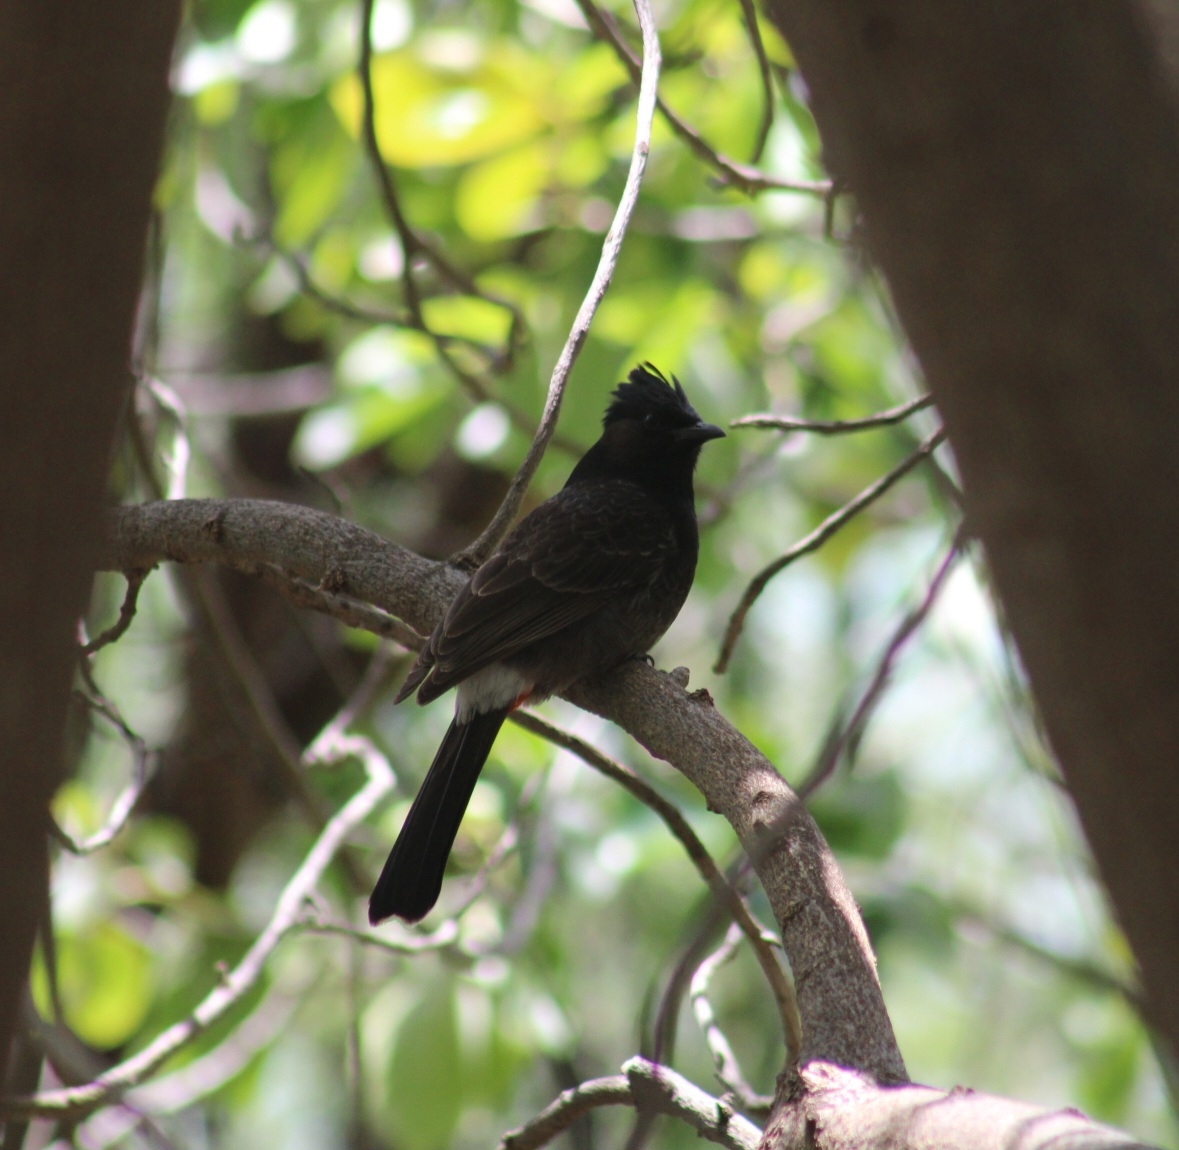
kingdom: Animalia
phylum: Chordata
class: Aves
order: Passeriformes
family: Pycnonotidae
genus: Pycnonotus
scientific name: Pycnonotus cafer
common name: Red-vented bulbul
